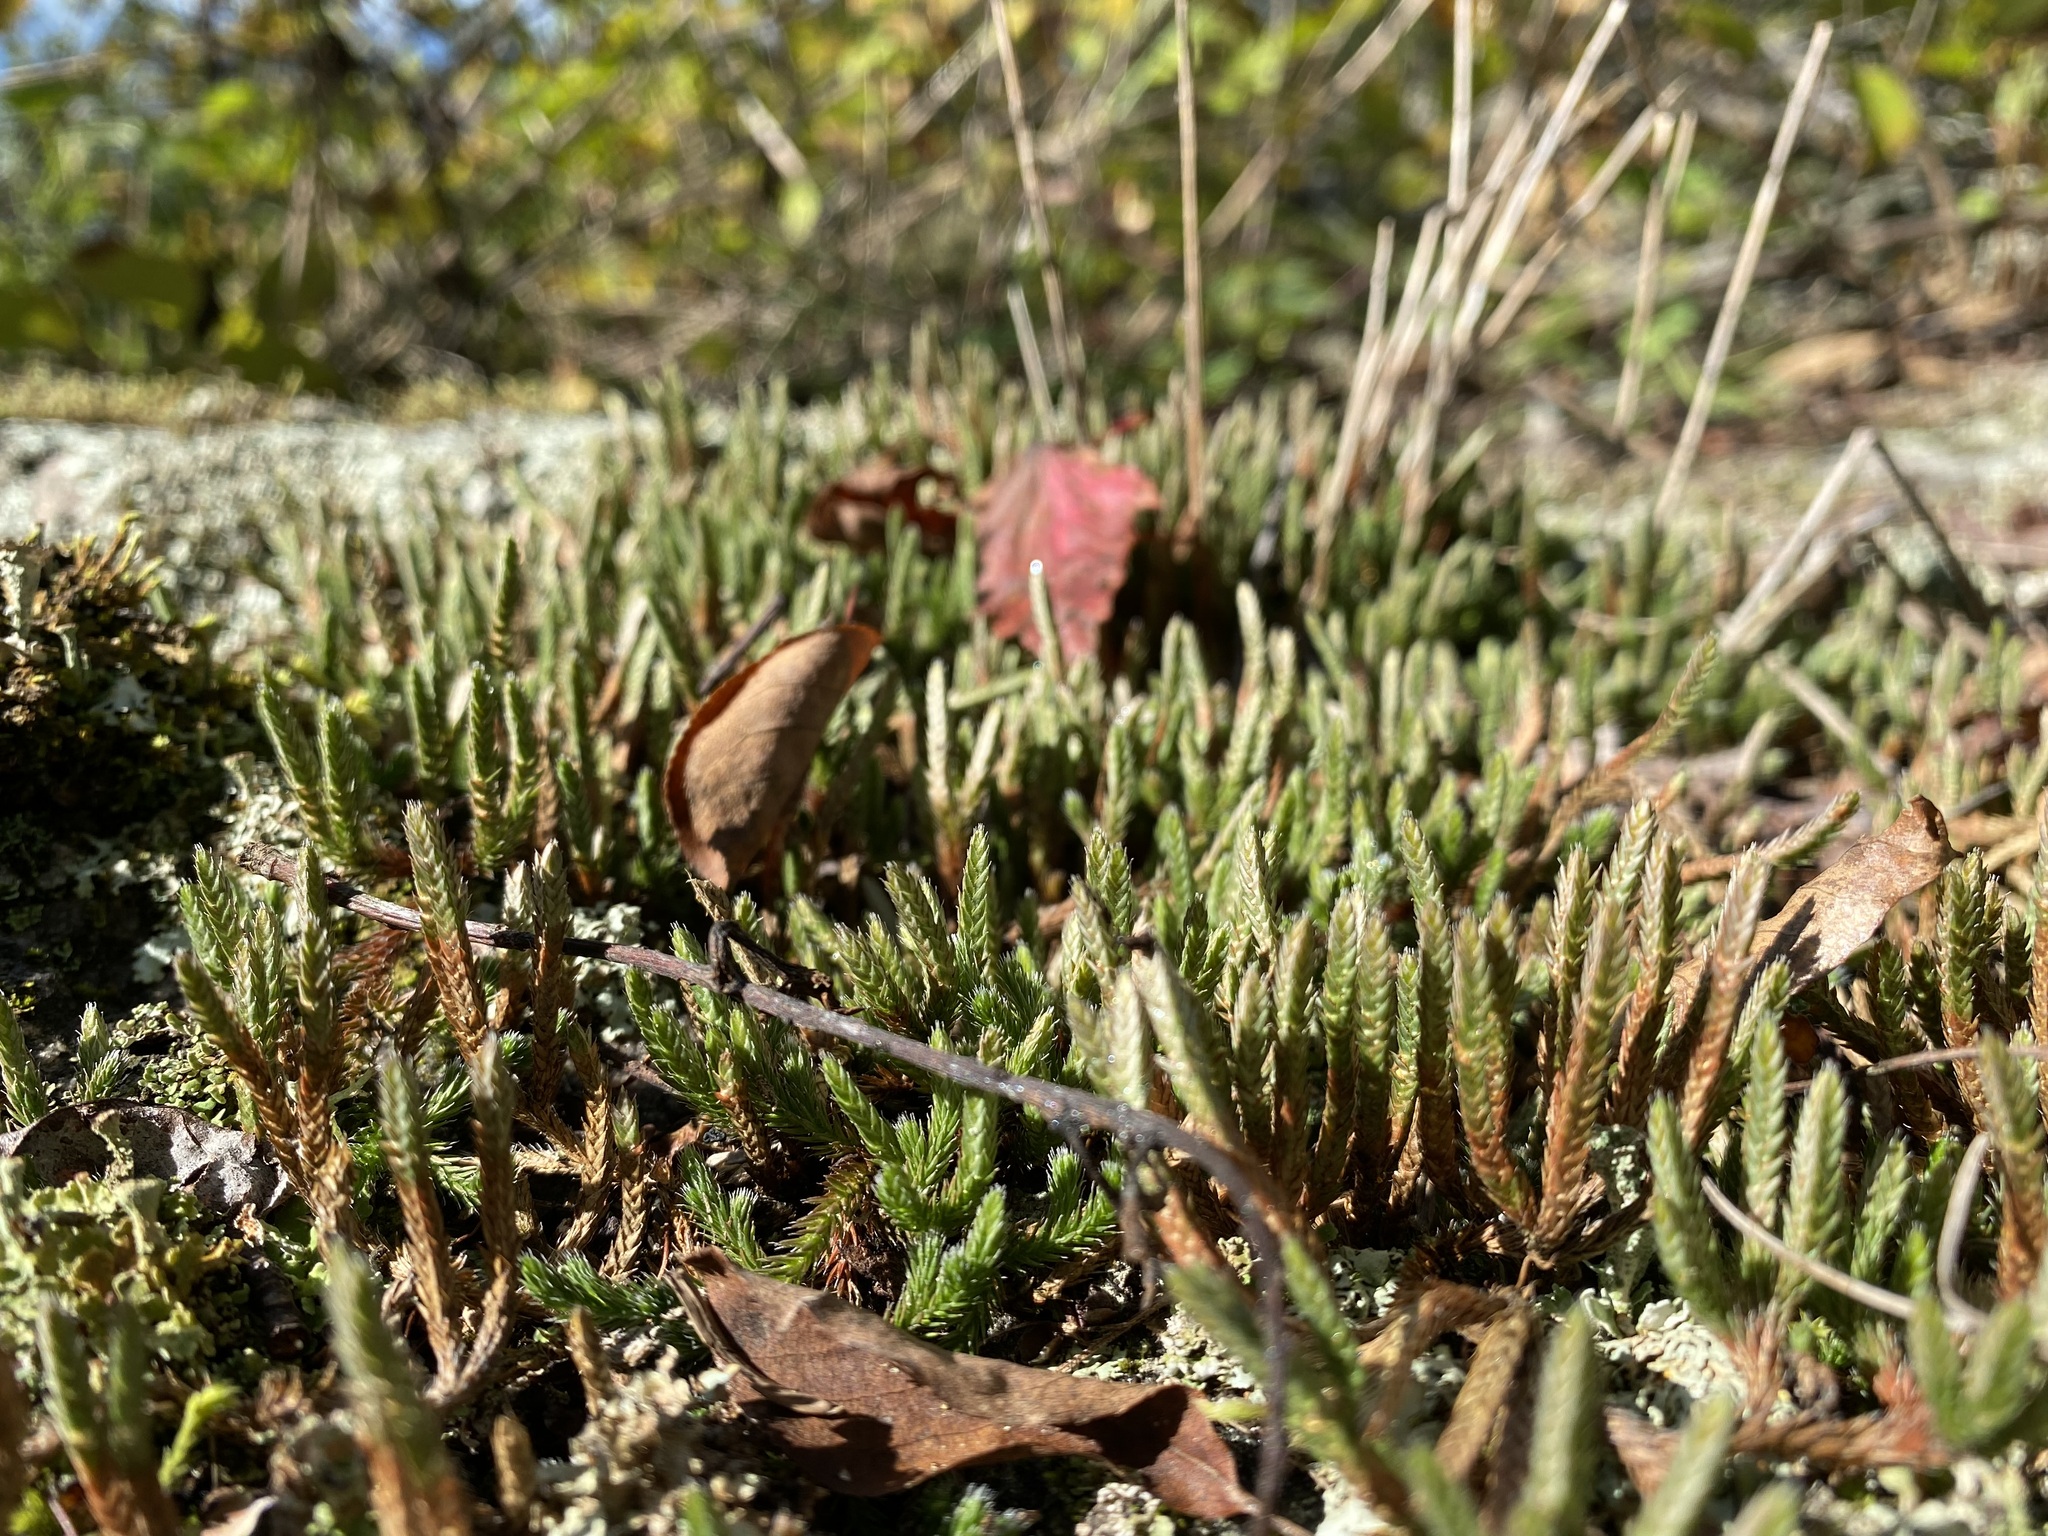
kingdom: Plantae
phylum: Tracheophyta
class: Lycopodiopsida
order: Selaginellales
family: Selaginellaceae
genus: Selaginella
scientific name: Selaginella rupestris
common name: Dwarf spikemoss
